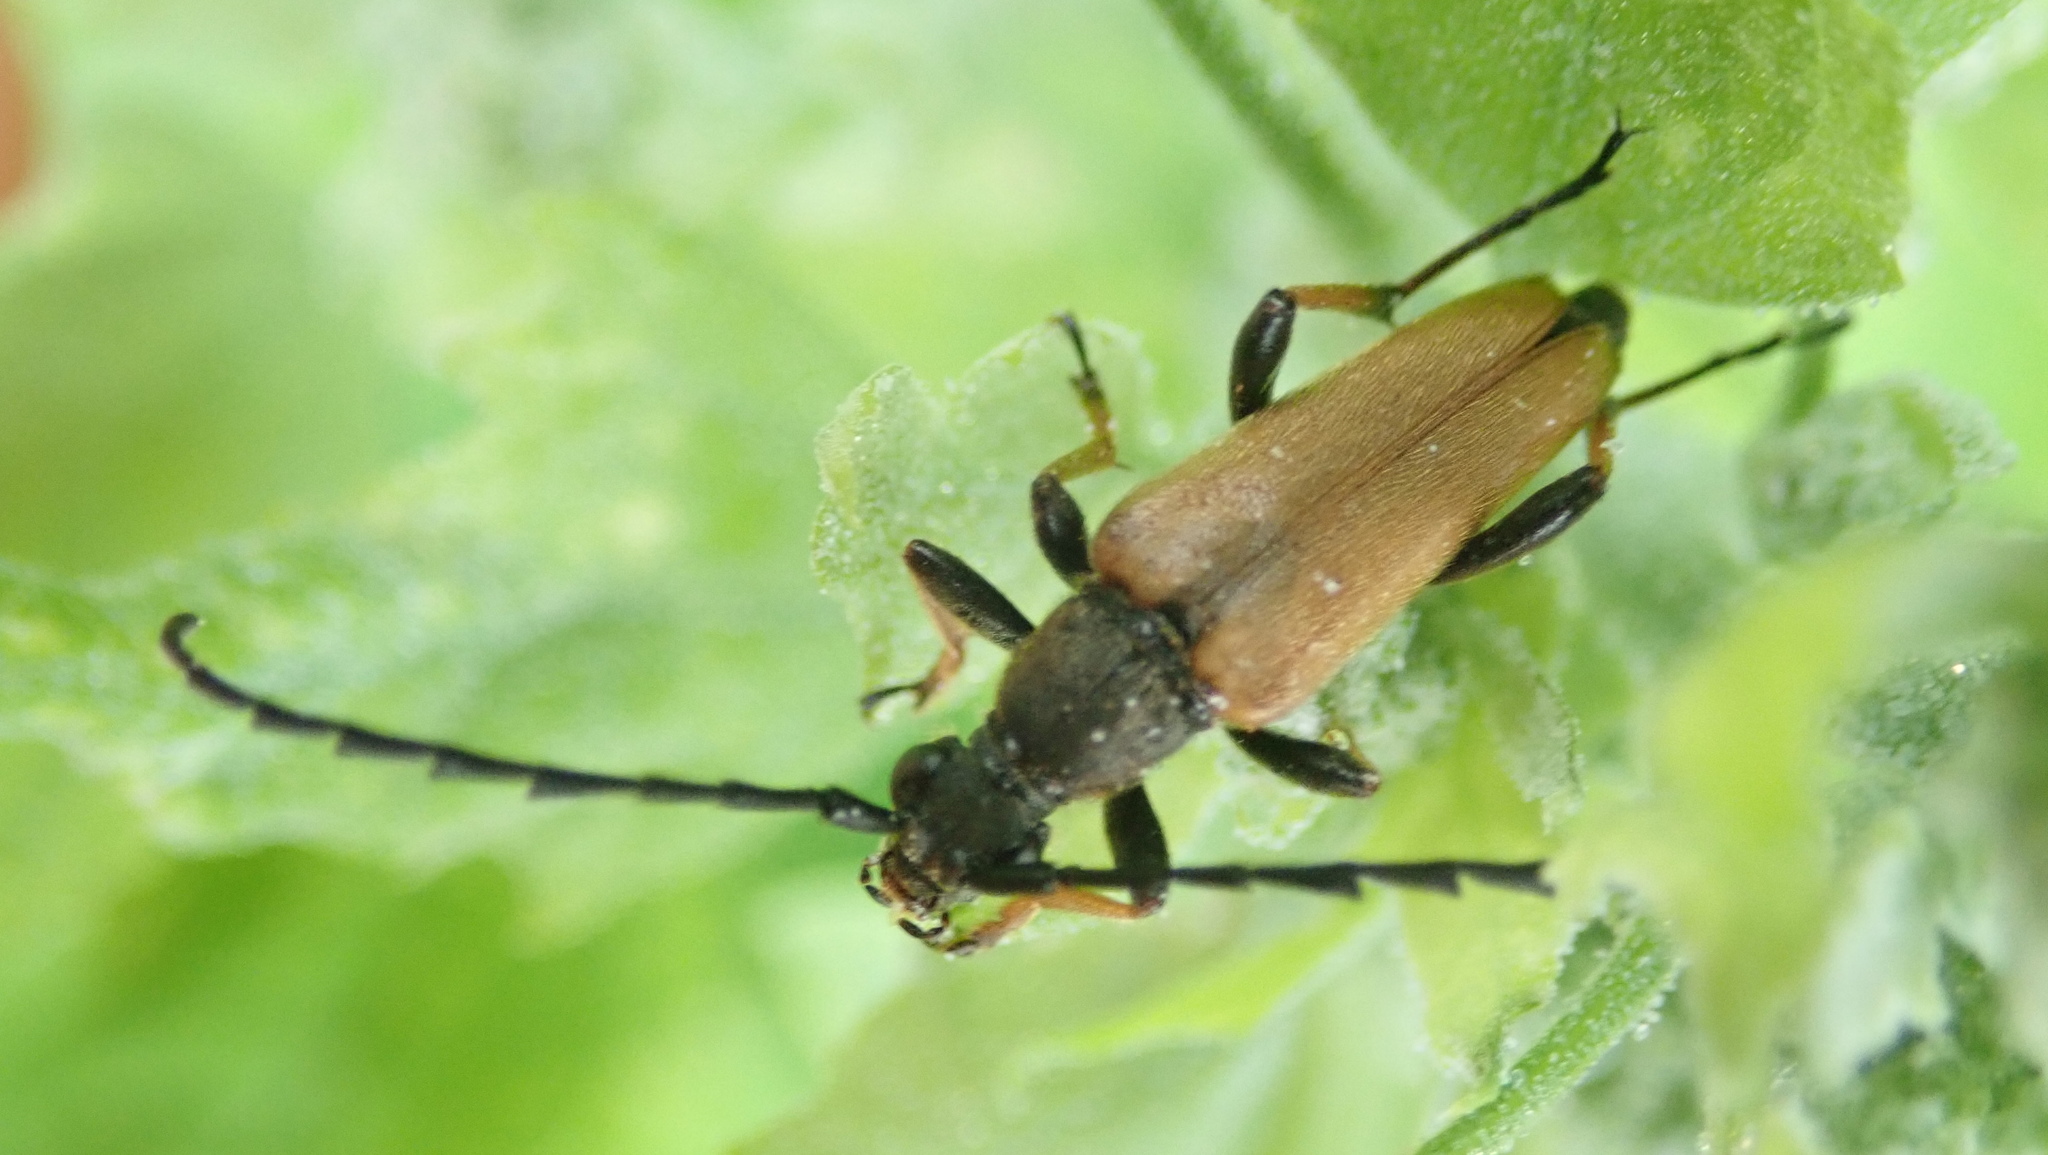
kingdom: Animalia
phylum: Arthropoda
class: Insecta
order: Coleoptera
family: Cerambycidae
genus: Stictoleptura
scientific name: Stictoleptura rubra
